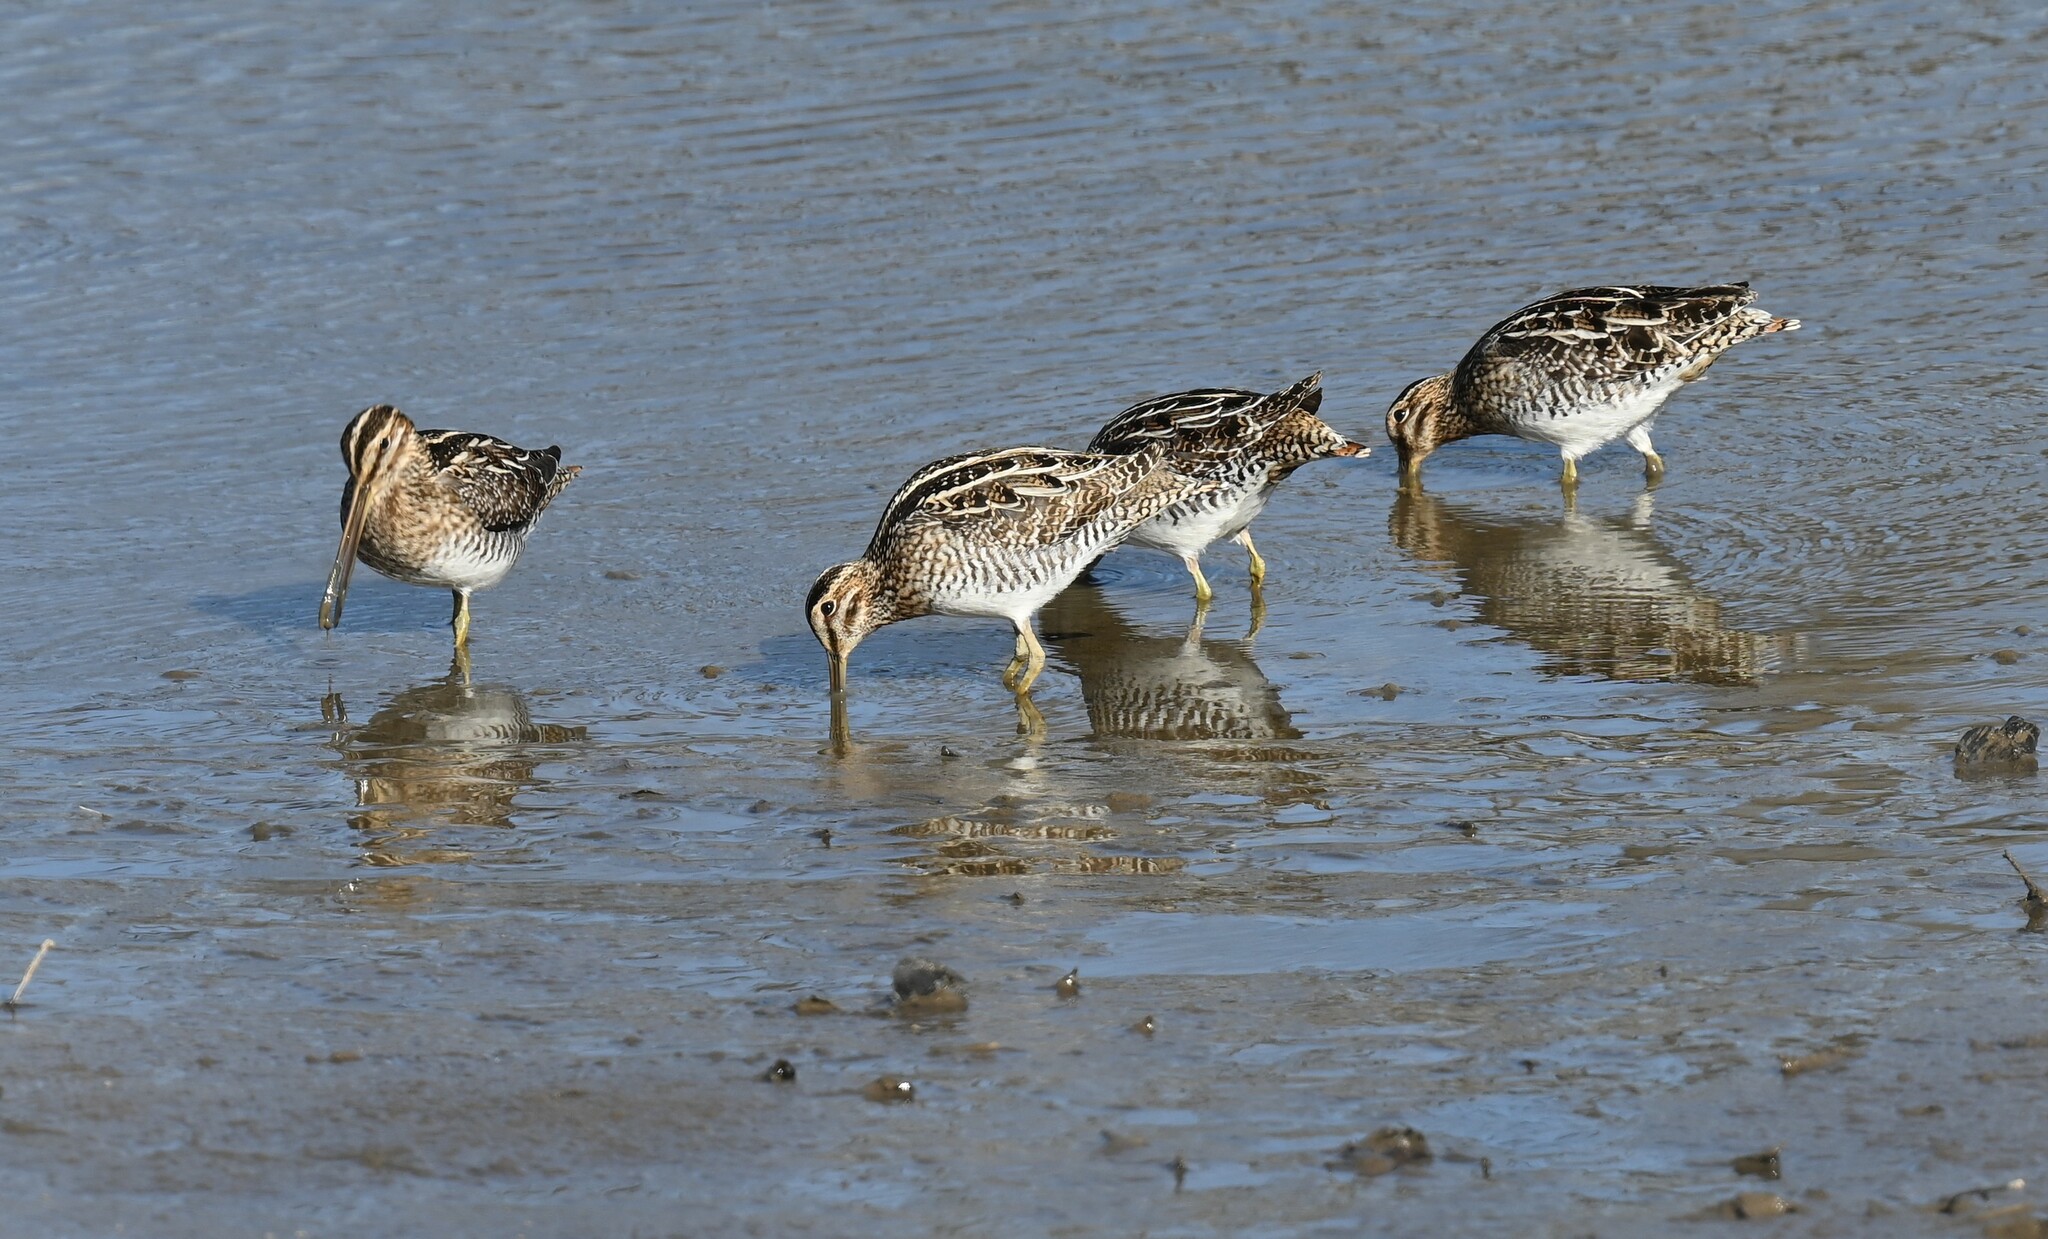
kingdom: Animalia
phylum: Chordata
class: Aves
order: Charadriiformes
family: Scolopacidae
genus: Gallinago
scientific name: Gallinago delicata
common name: Wilson's snipe
